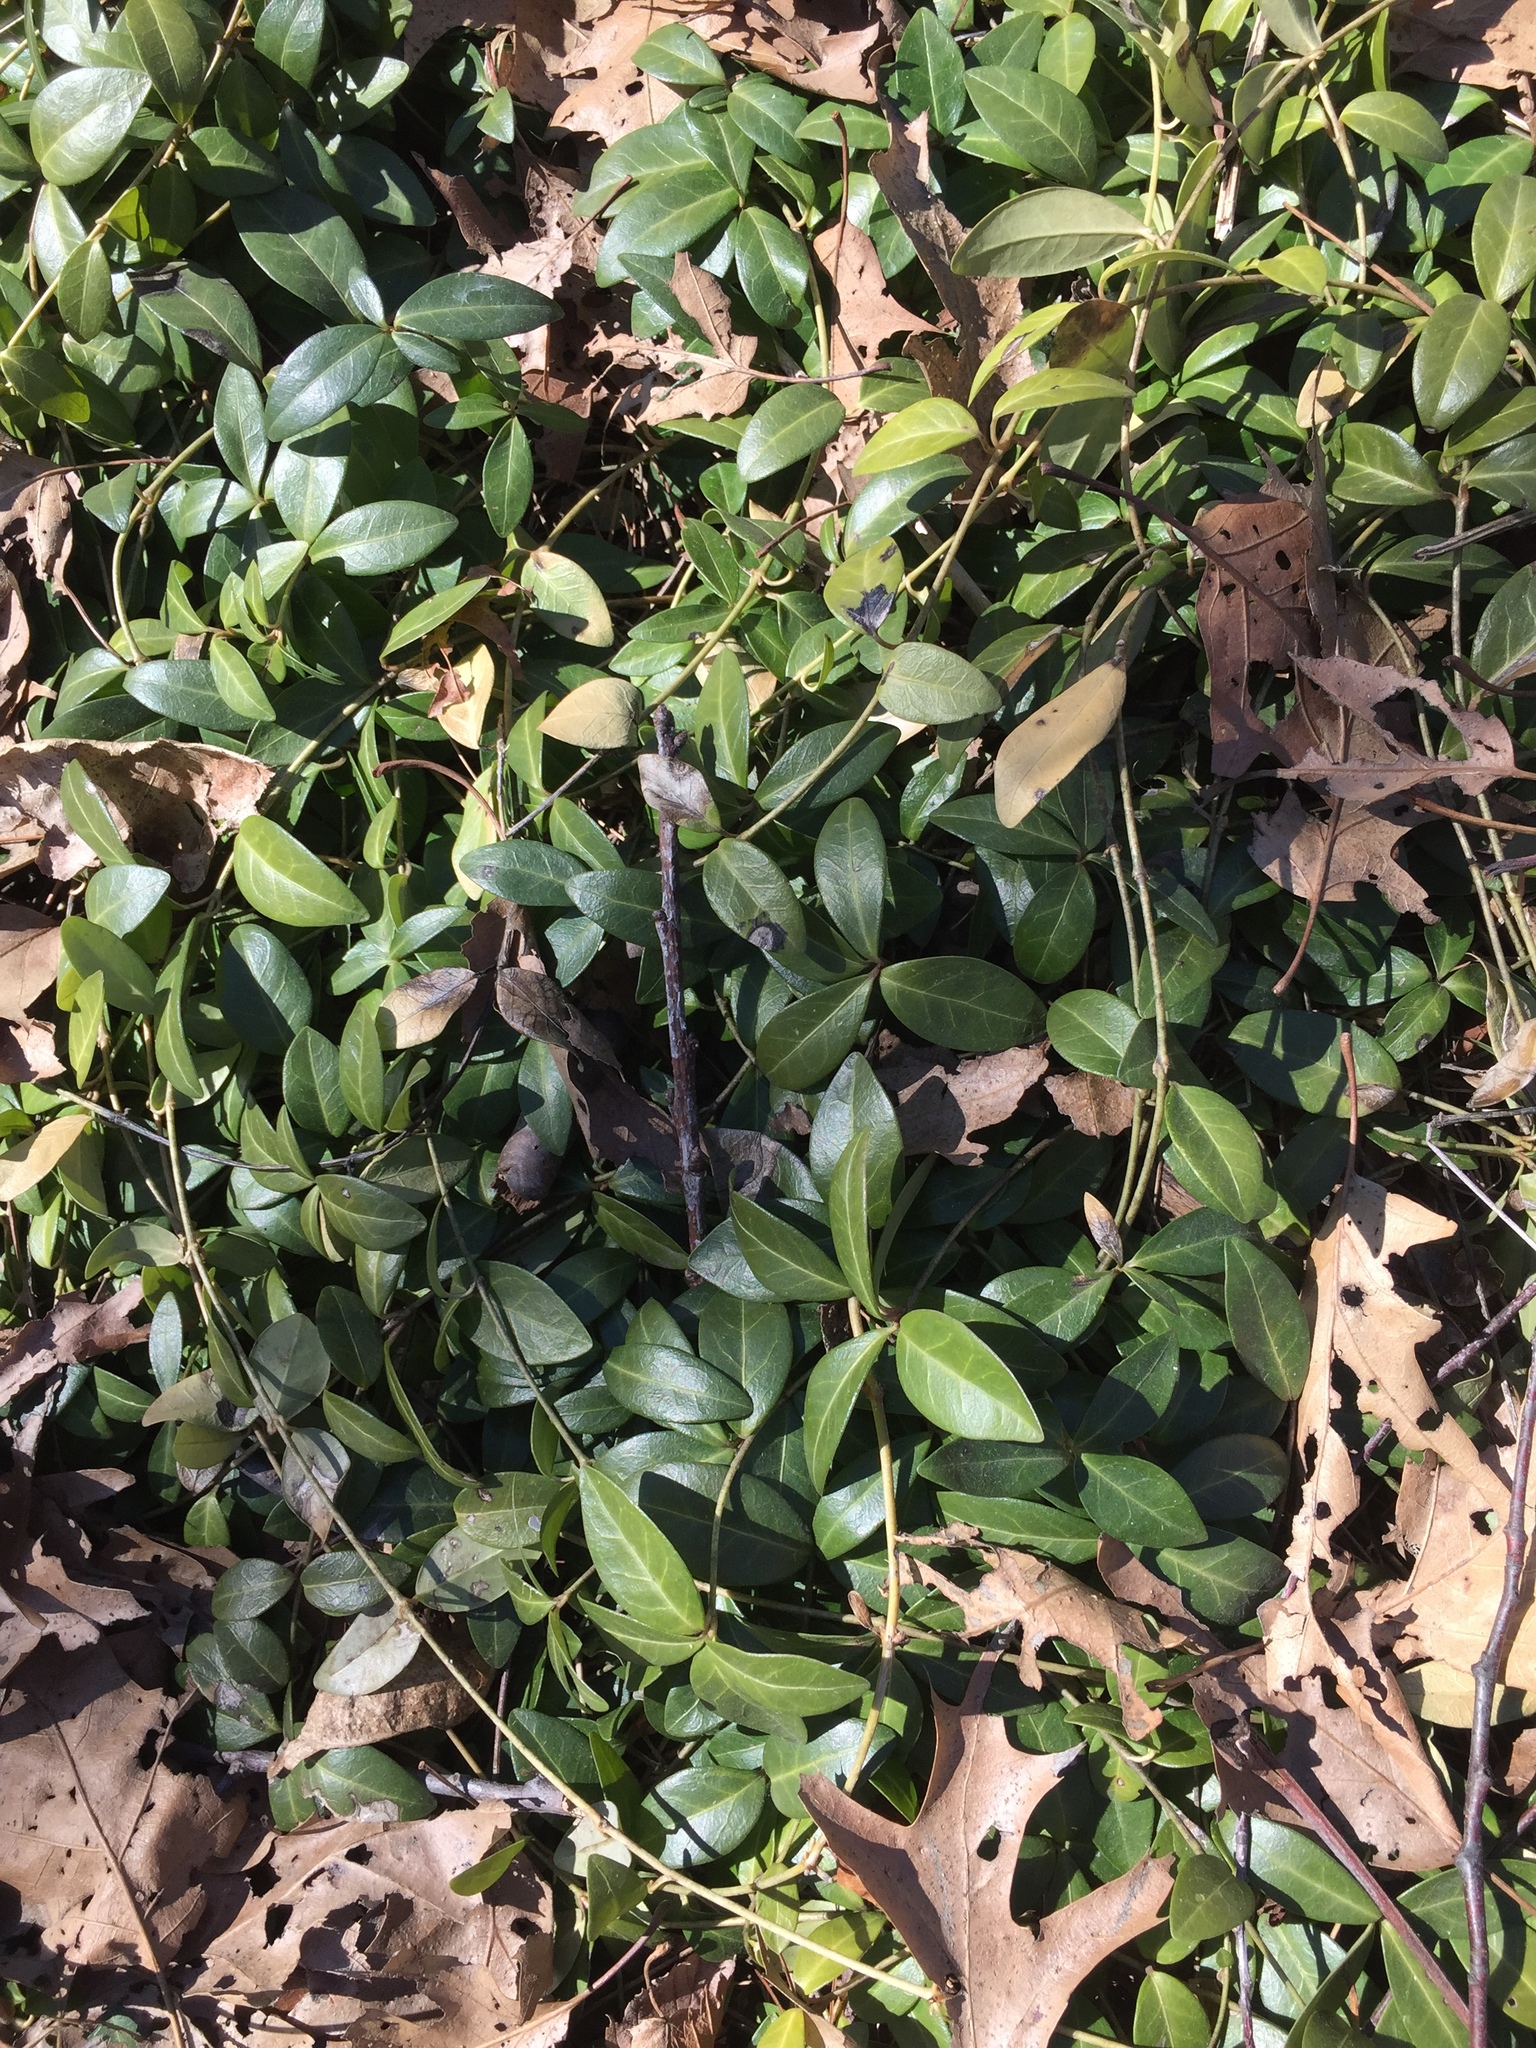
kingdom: Plantae
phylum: Tracheophyta
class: Magnoliopsida
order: Gentianales
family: Apocynaceae
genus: Vinca
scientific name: Vinca minor
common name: Lesser periwinkle
